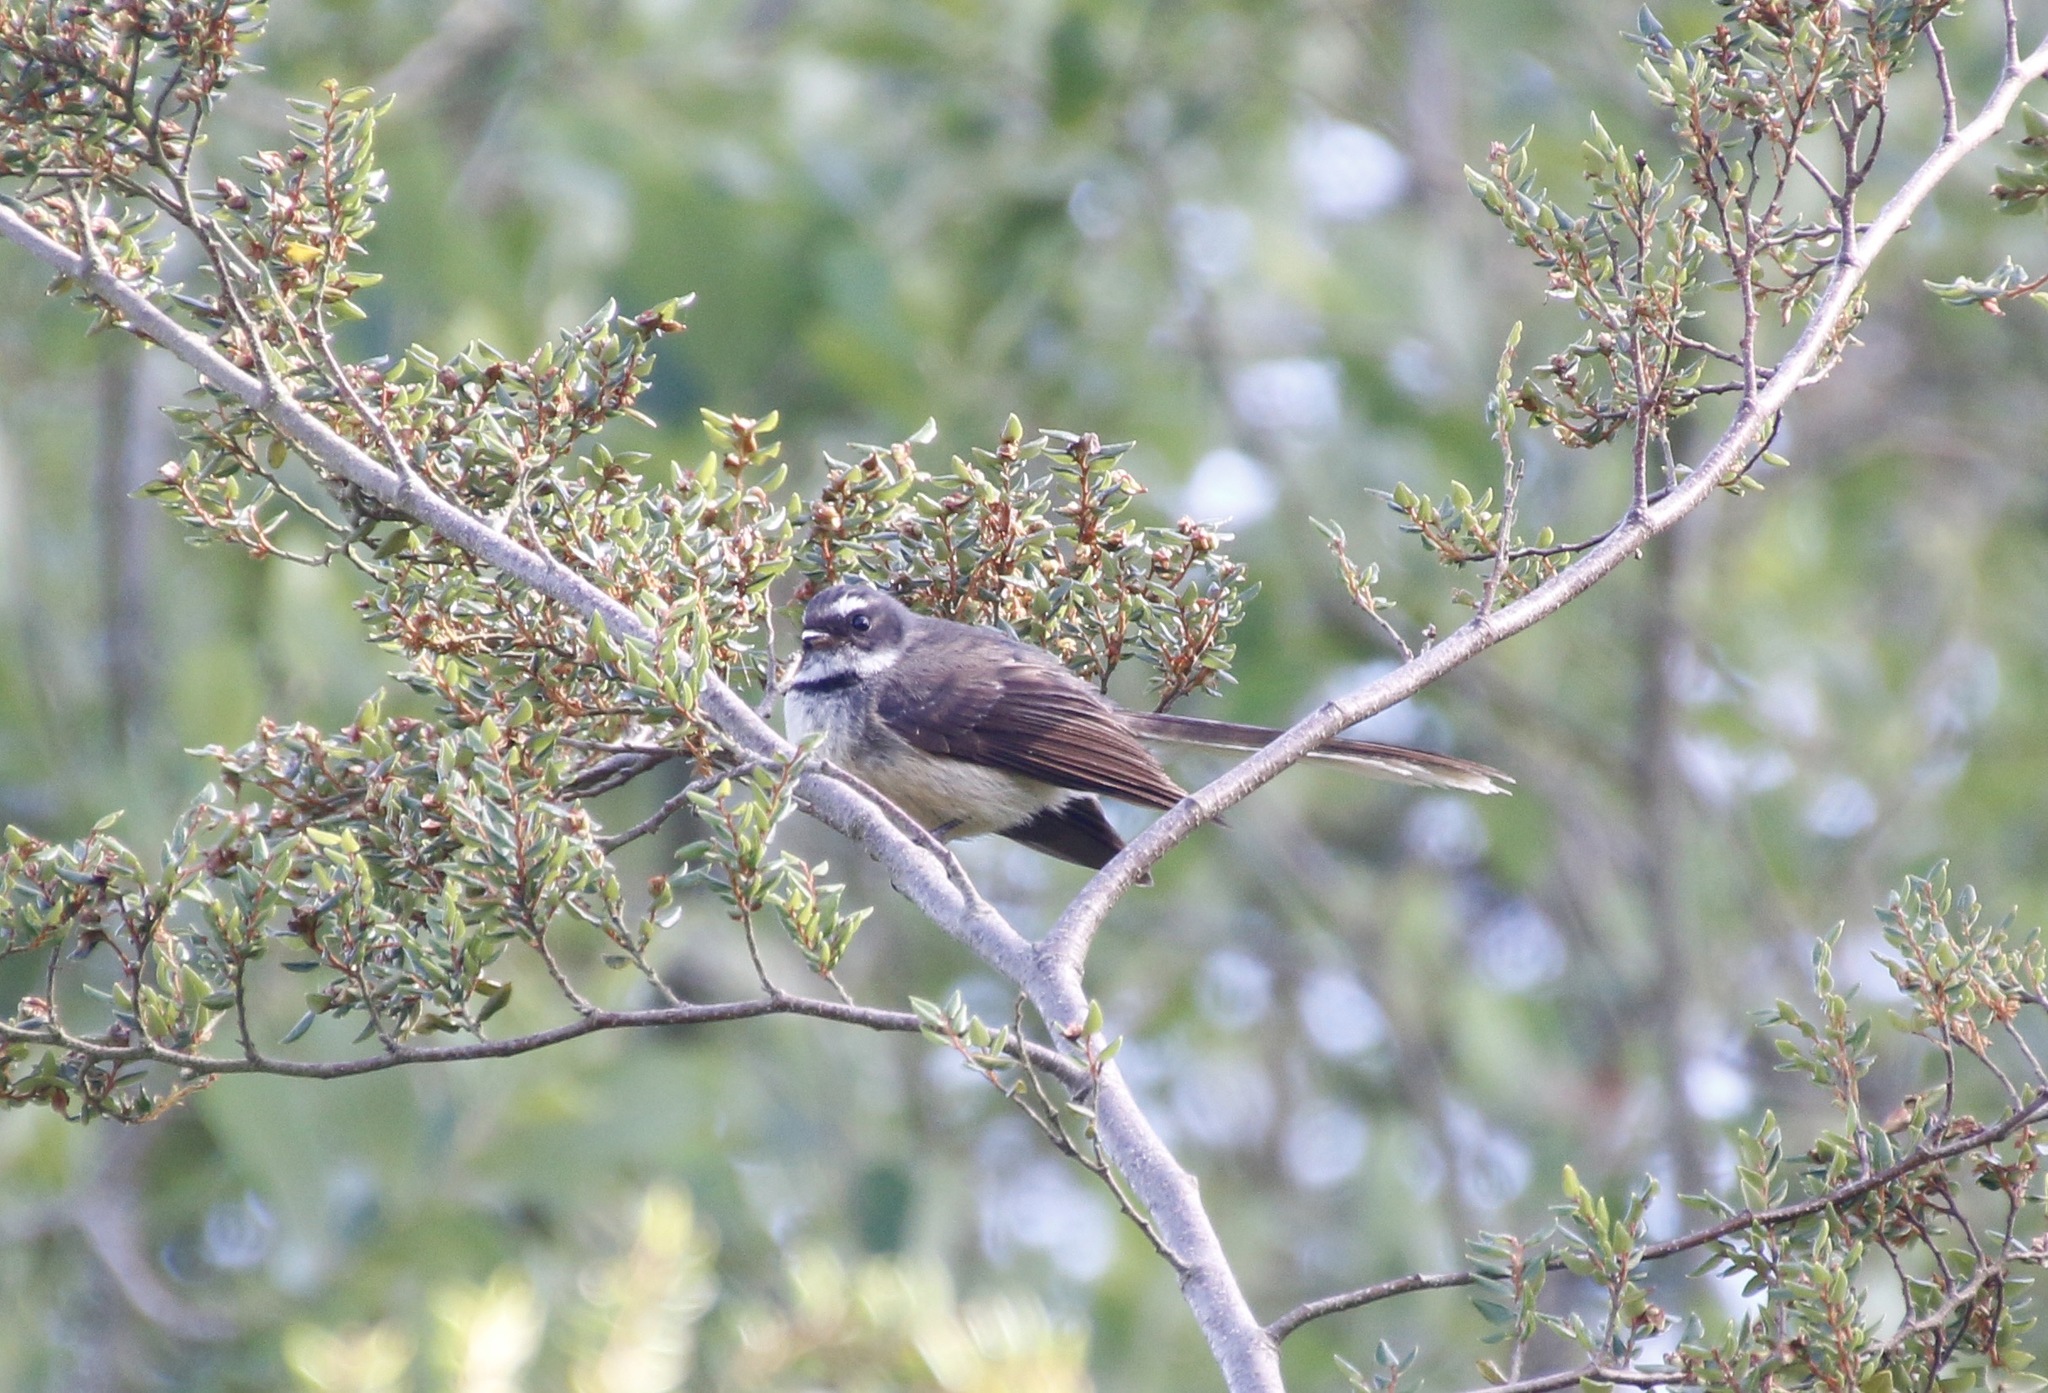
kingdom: Animalia
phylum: Chordata
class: Aves
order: Passeriformes
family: Rhipiduridae
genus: Rhipidura
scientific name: Rhipidura fuliginosa
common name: New zealand fantail
